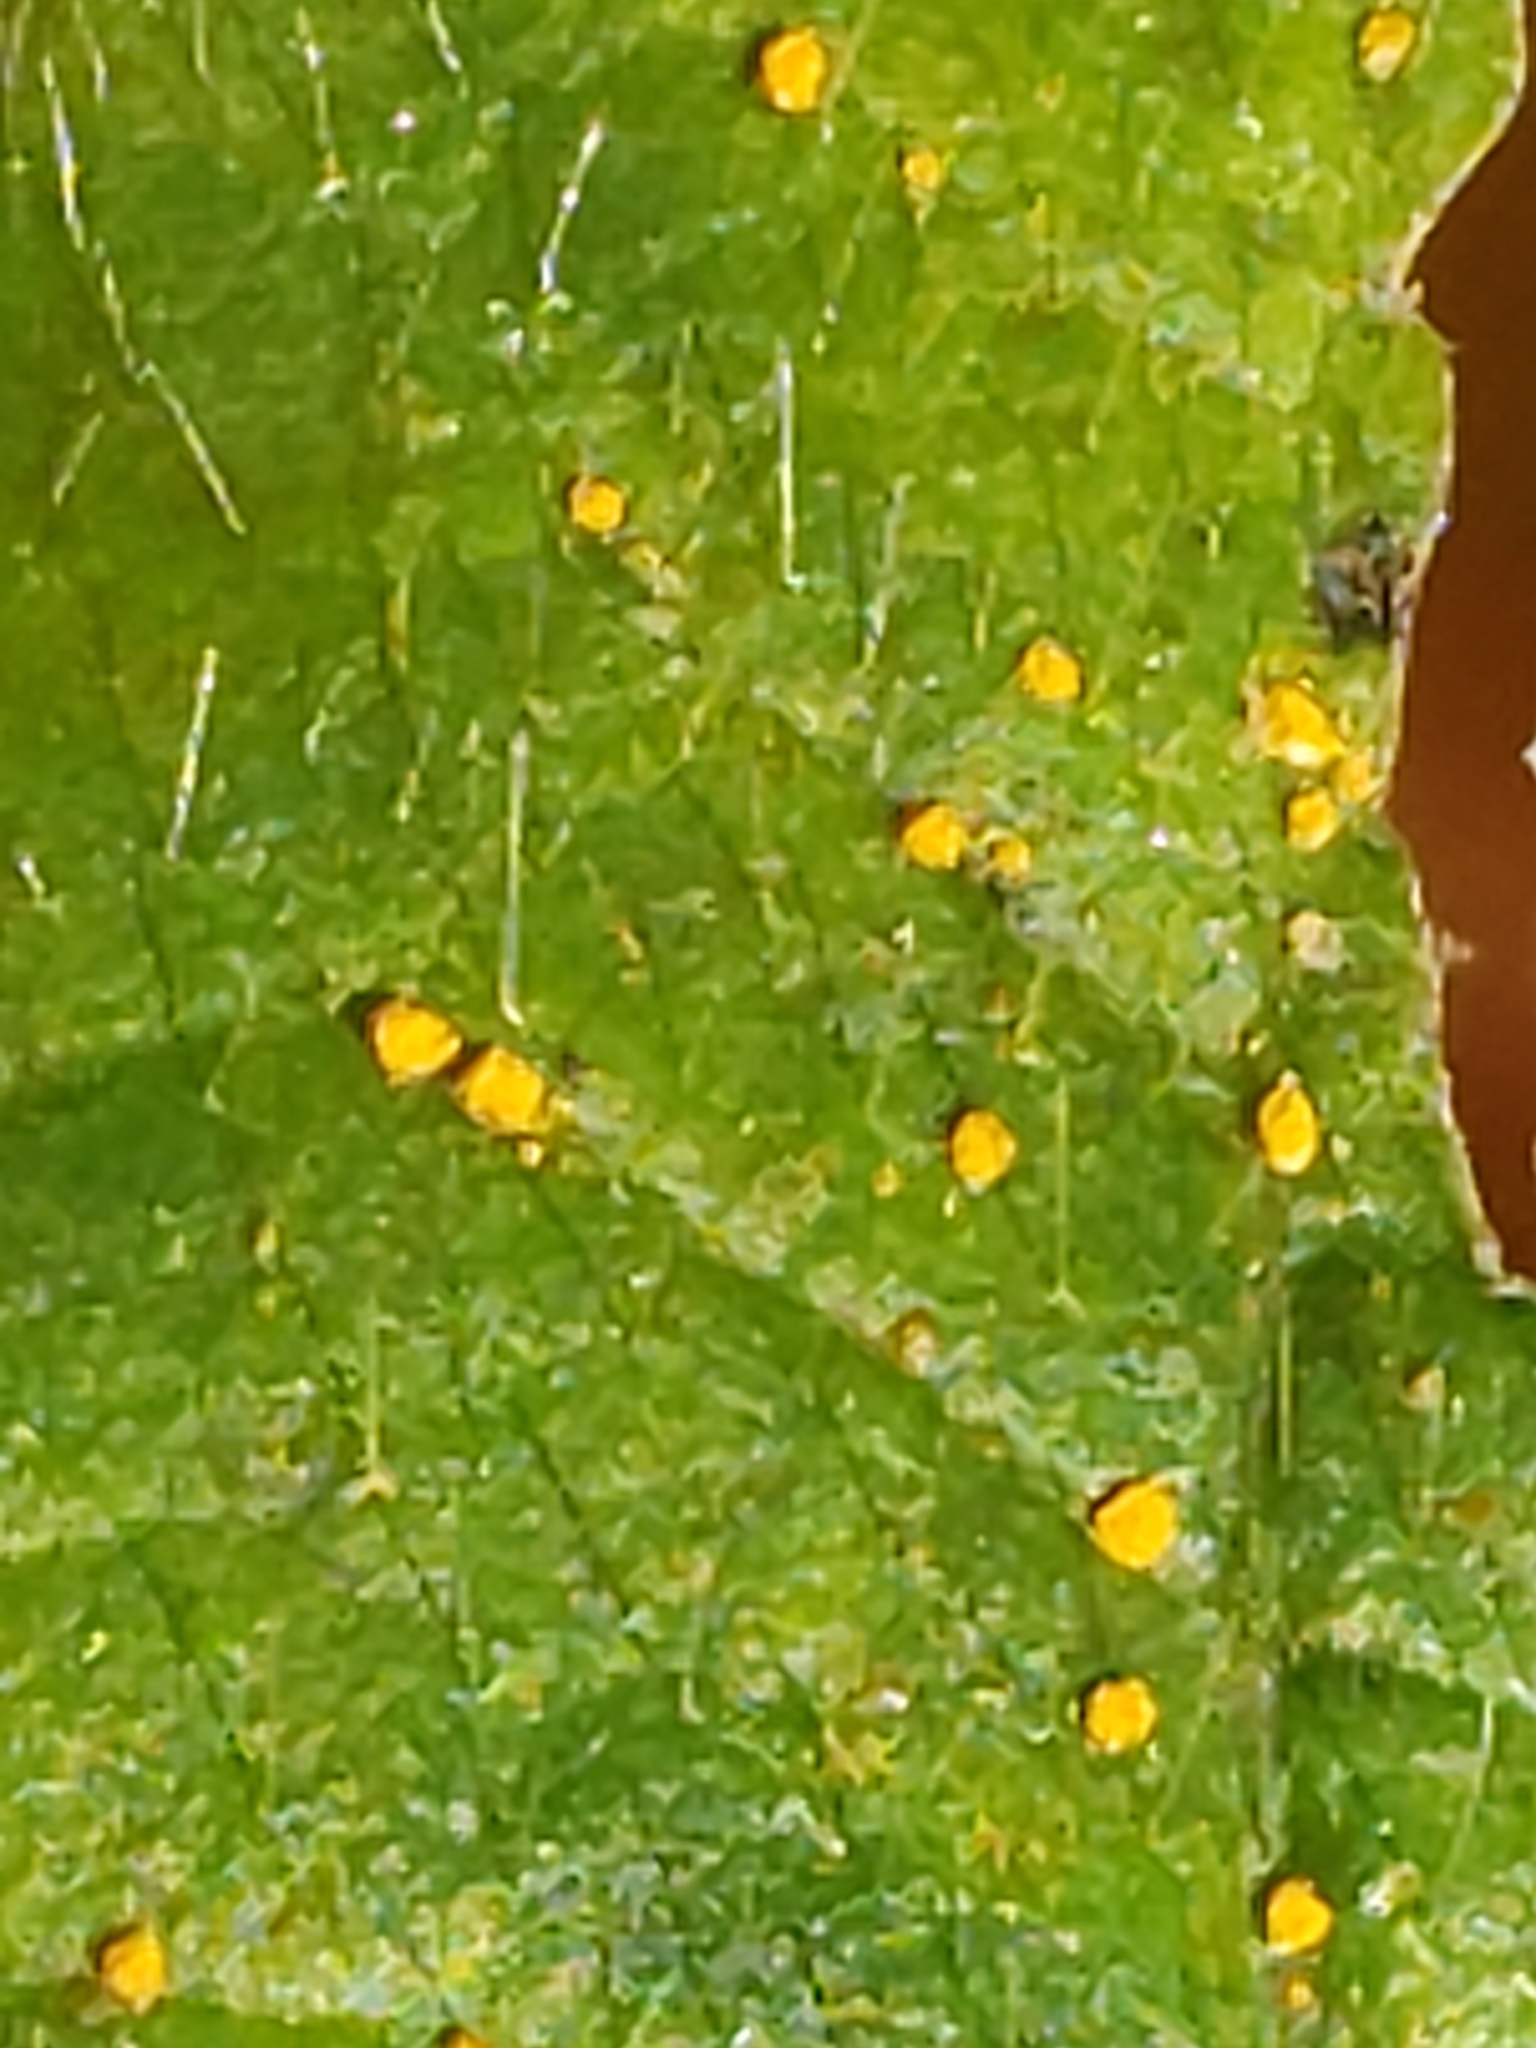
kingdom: Fungi
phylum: Basidiomycota
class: Pucciniomycetes
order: Pucciniales
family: Coleosporiaceae
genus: Coleosporium
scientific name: Coleosporium vernoniae
